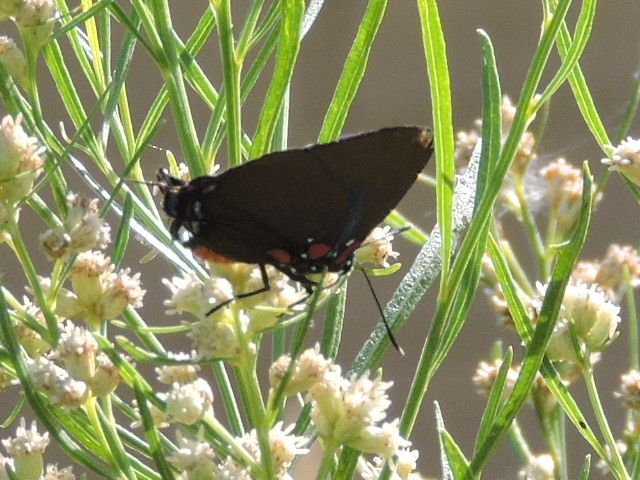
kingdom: Animalia
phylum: Arthropoda
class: Insecta
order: Lepidoptera
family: Lycaenidae
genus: Atlides
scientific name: Atlides halesus
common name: Great purple hairstreak
